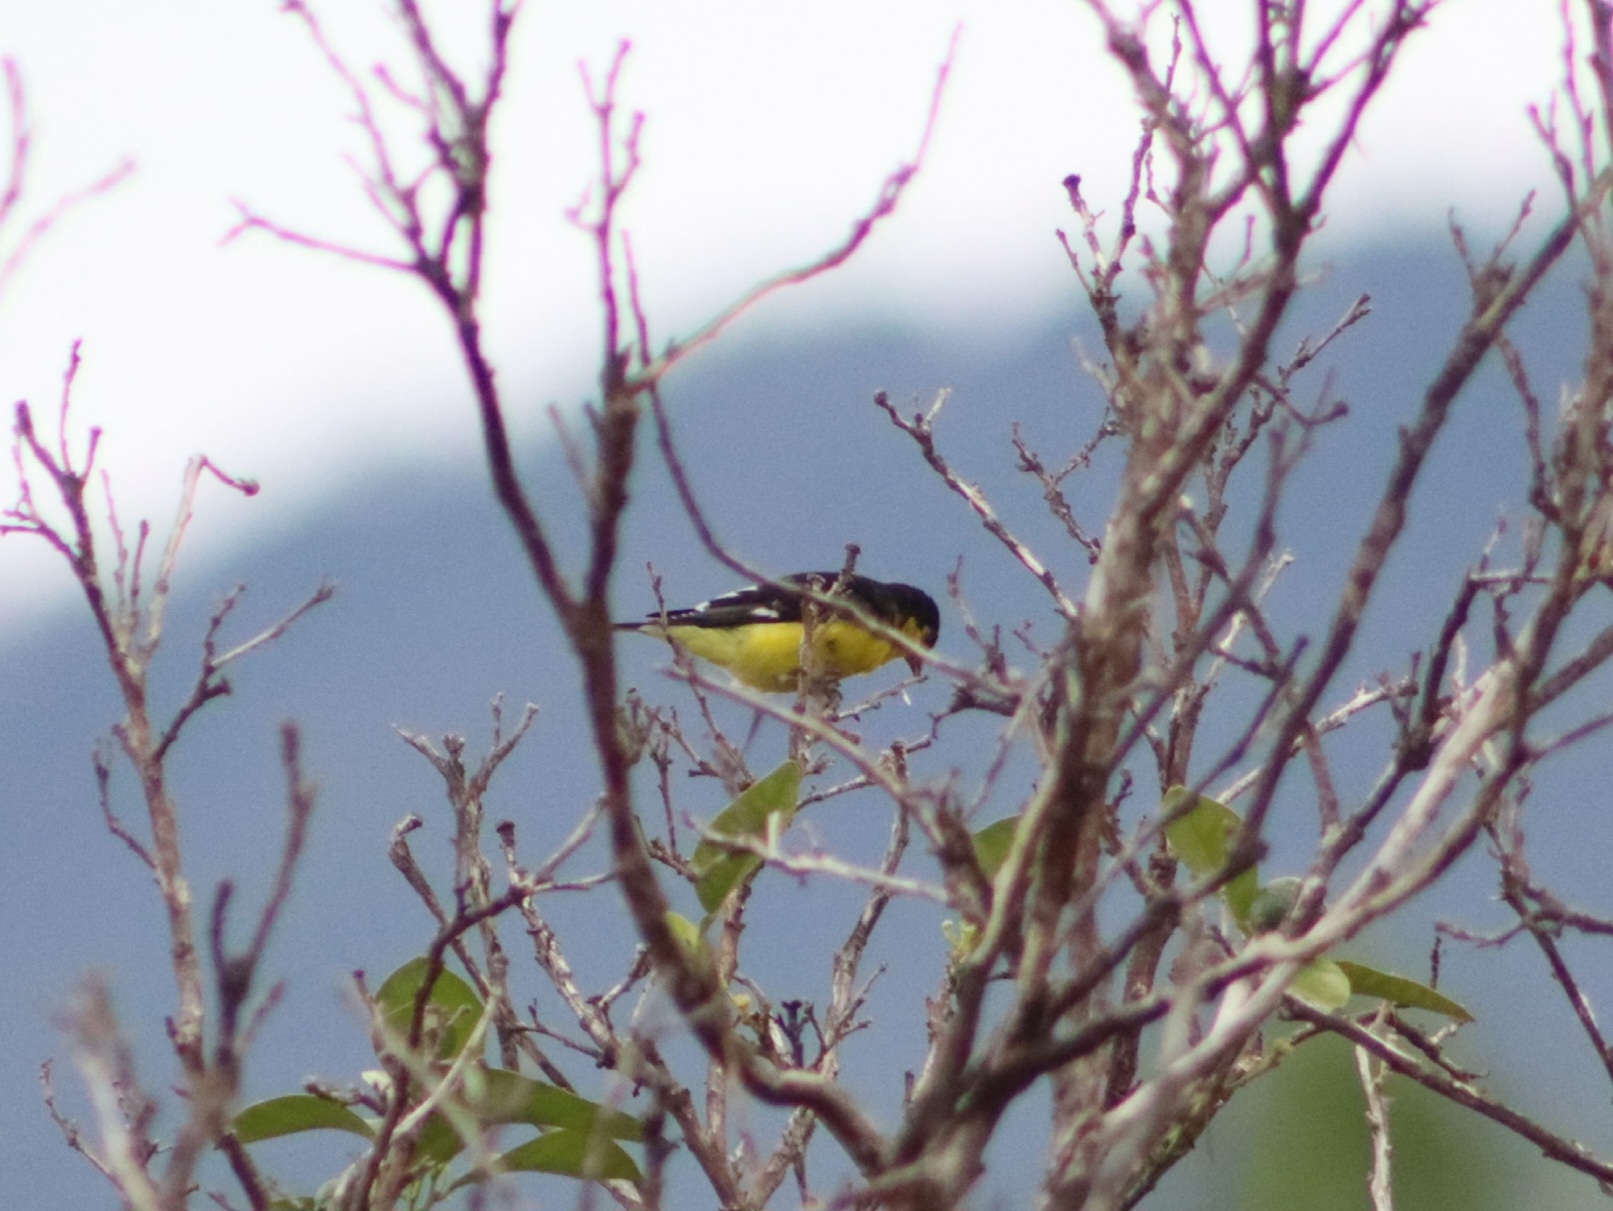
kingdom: Animalia
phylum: Chordata
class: Aves
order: Passeriformes
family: Fringillidae
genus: Spinus
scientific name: Spinus psaltria
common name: Lesser goldfinch
